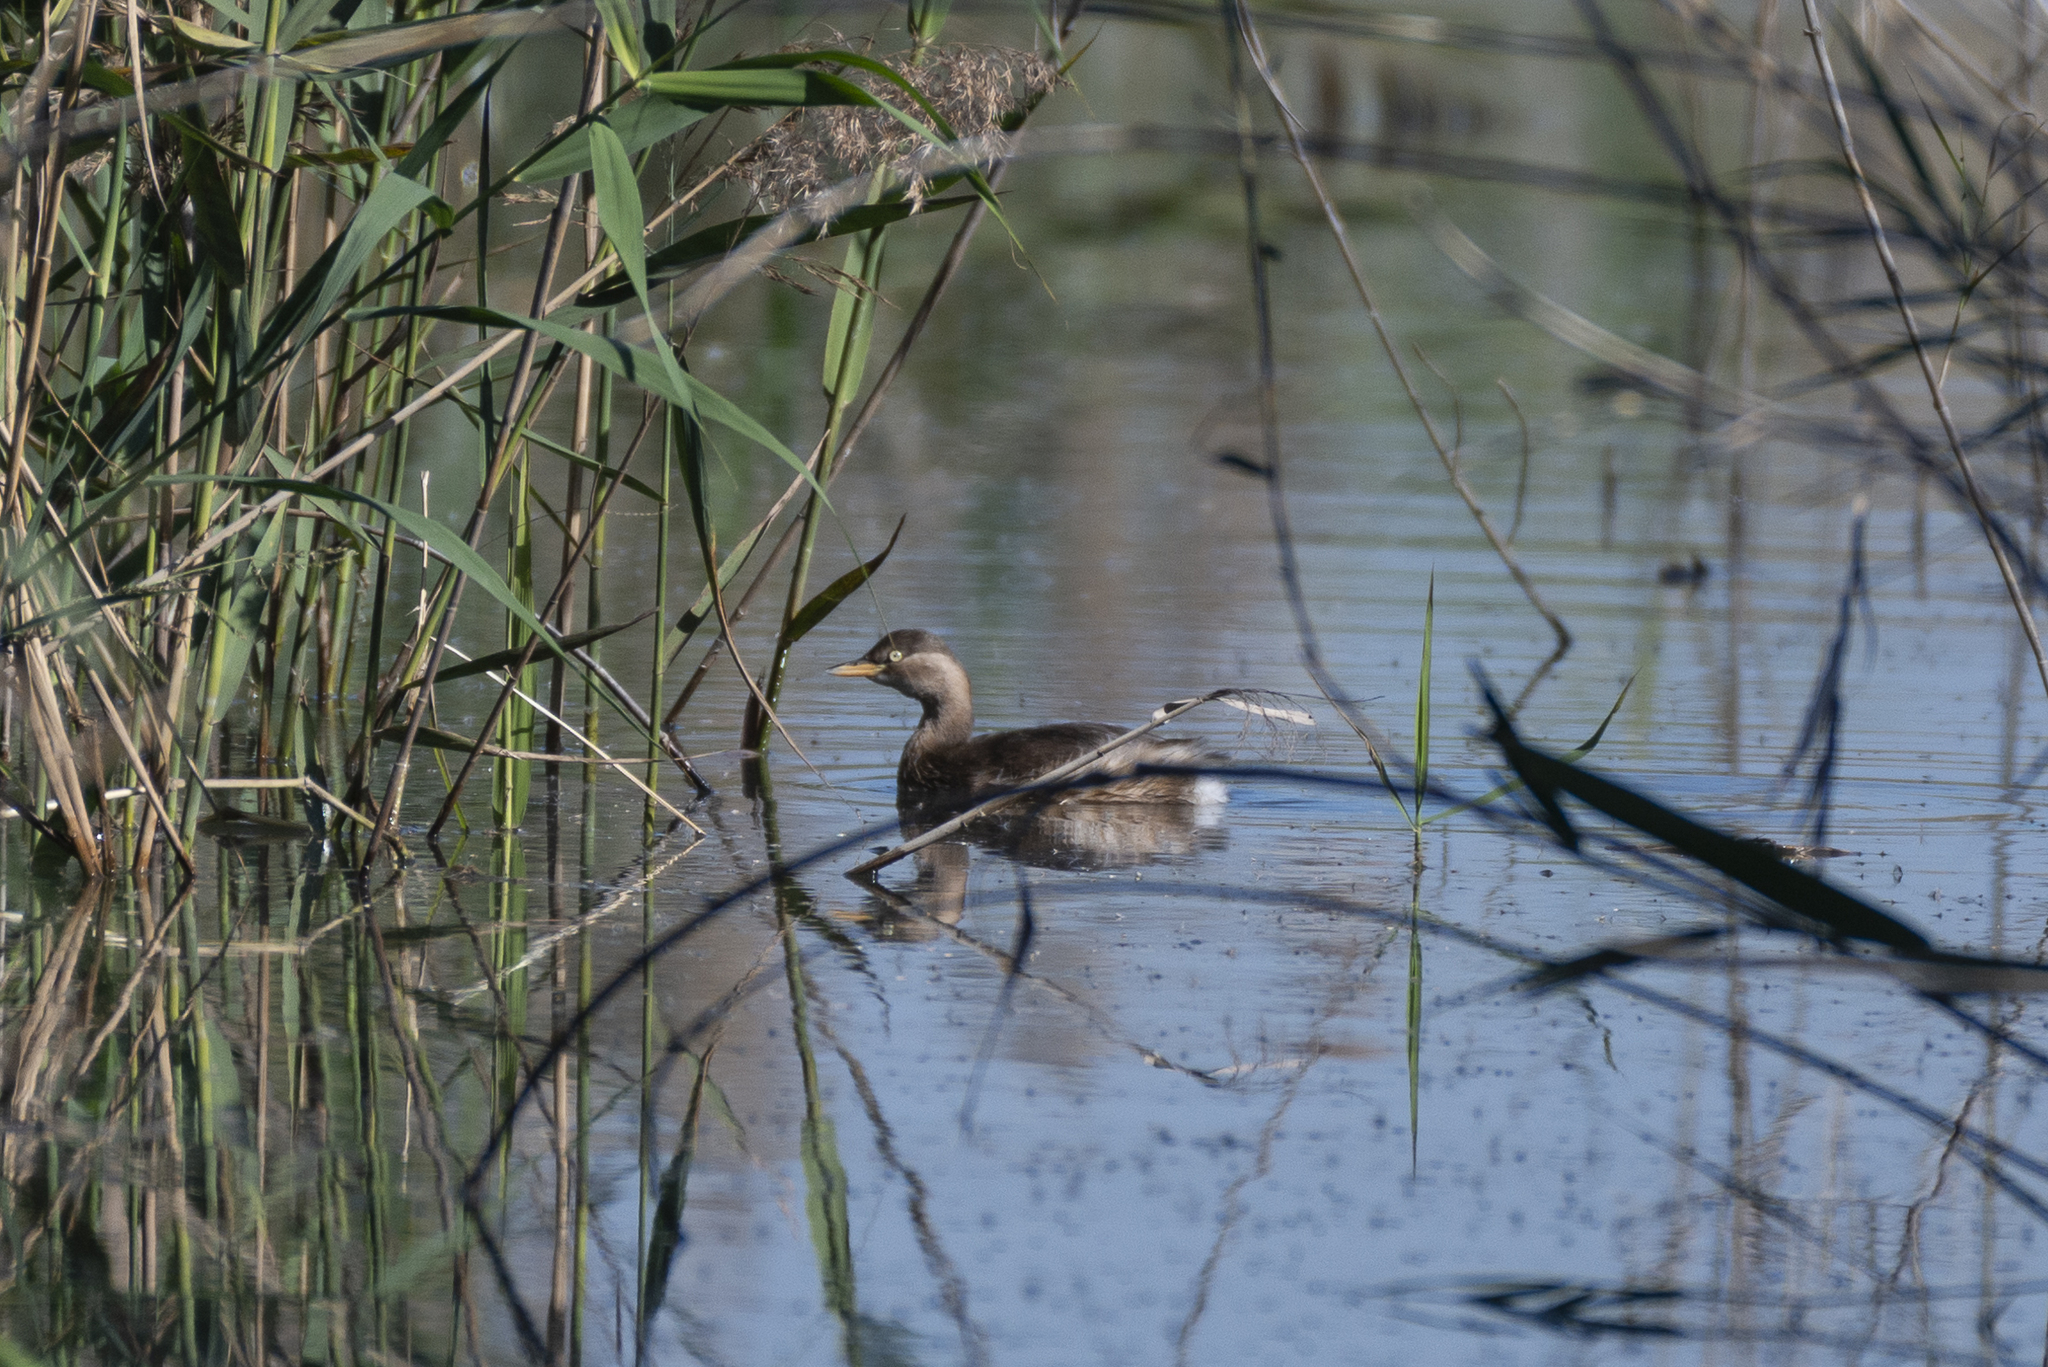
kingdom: Animalia
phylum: Chordata
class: Aves
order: Podicipediformes
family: Podicipedidae
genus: Tachybaptus
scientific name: Tachybaptus ruficollis
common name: Little grebe
